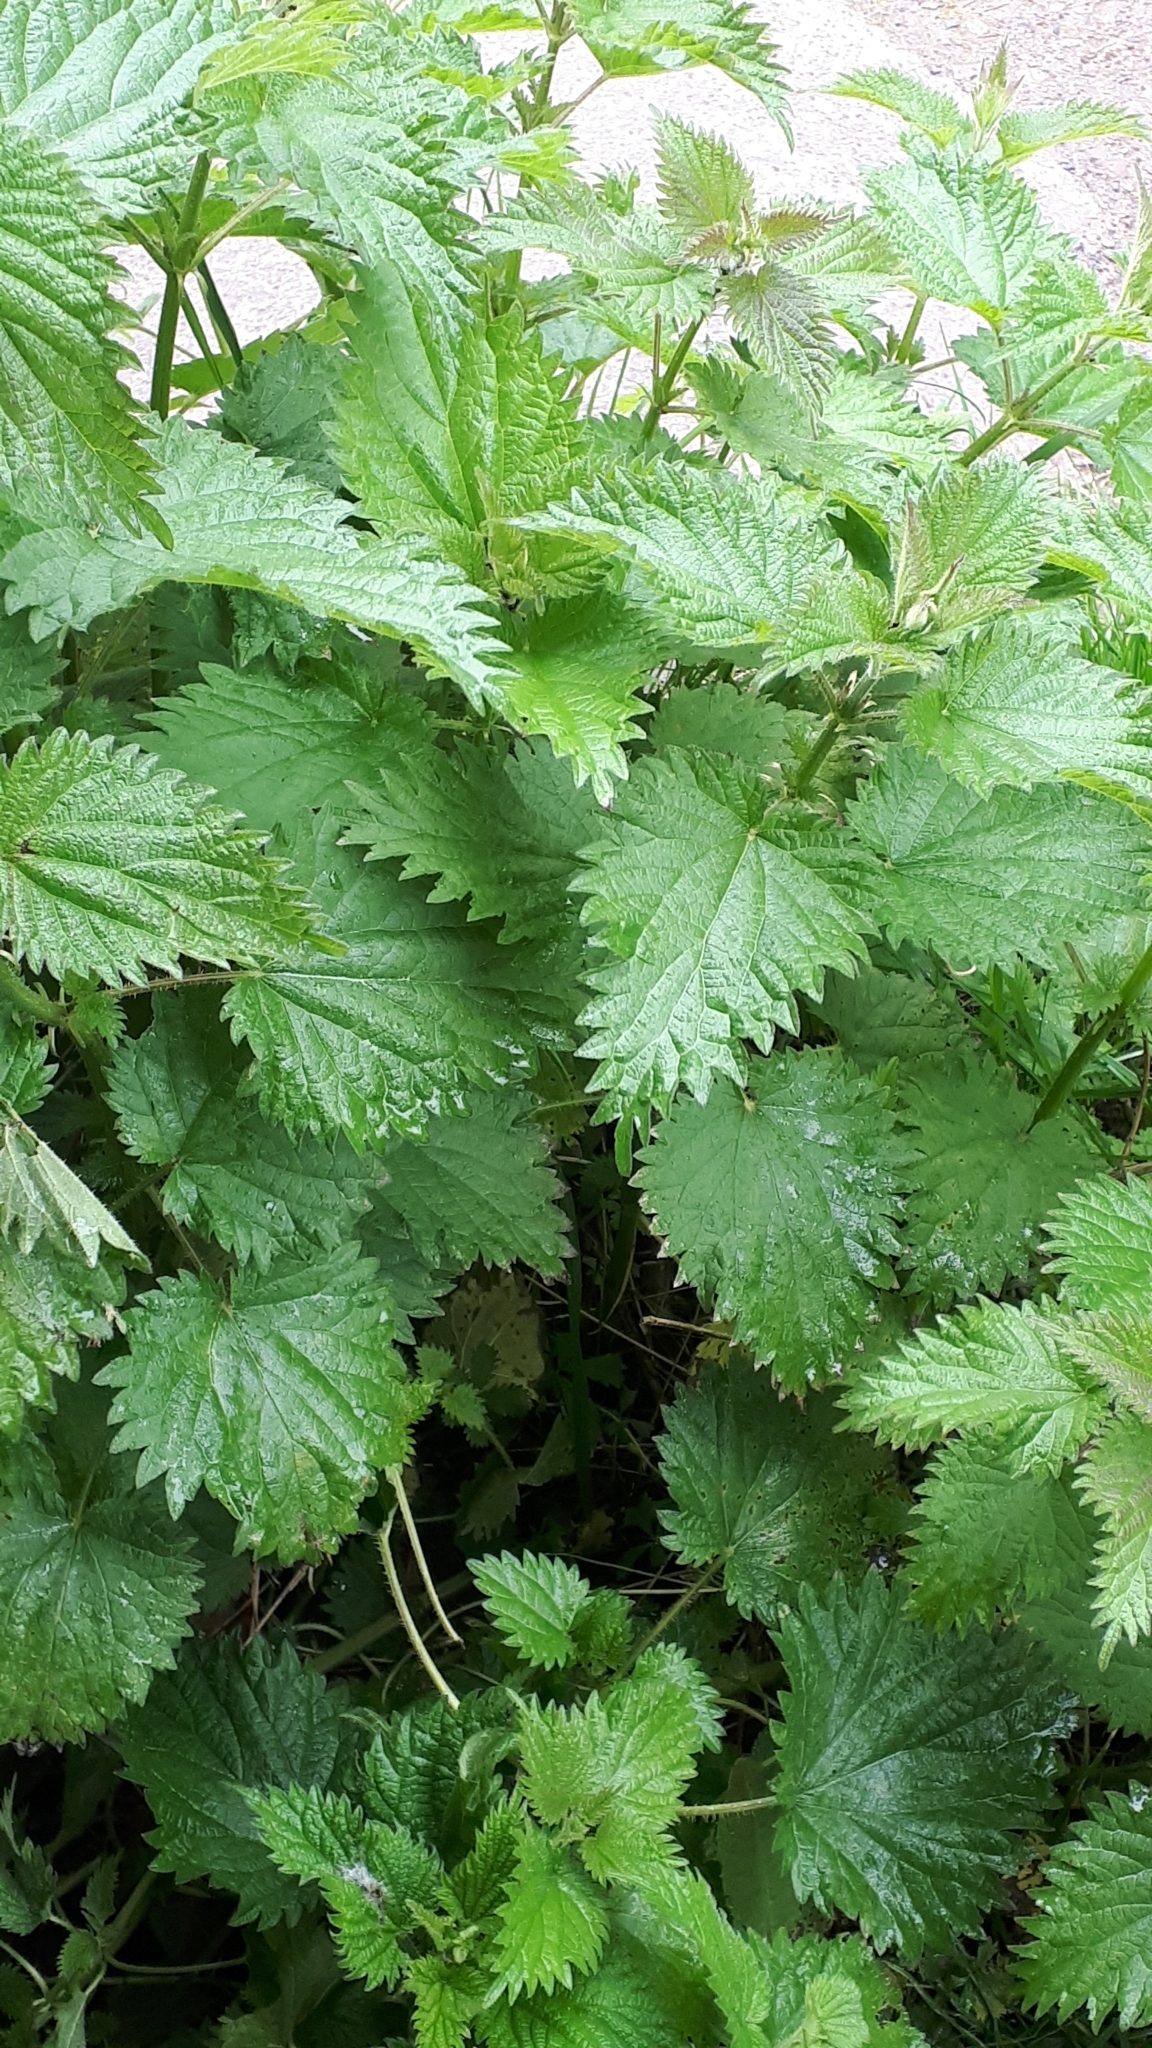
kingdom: Plantae
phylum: Tracheophyta
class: Magnoliopsida
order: Rosales
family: Urticaceae
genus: Urtica
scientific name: Urtica dioica
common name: Common nettle
